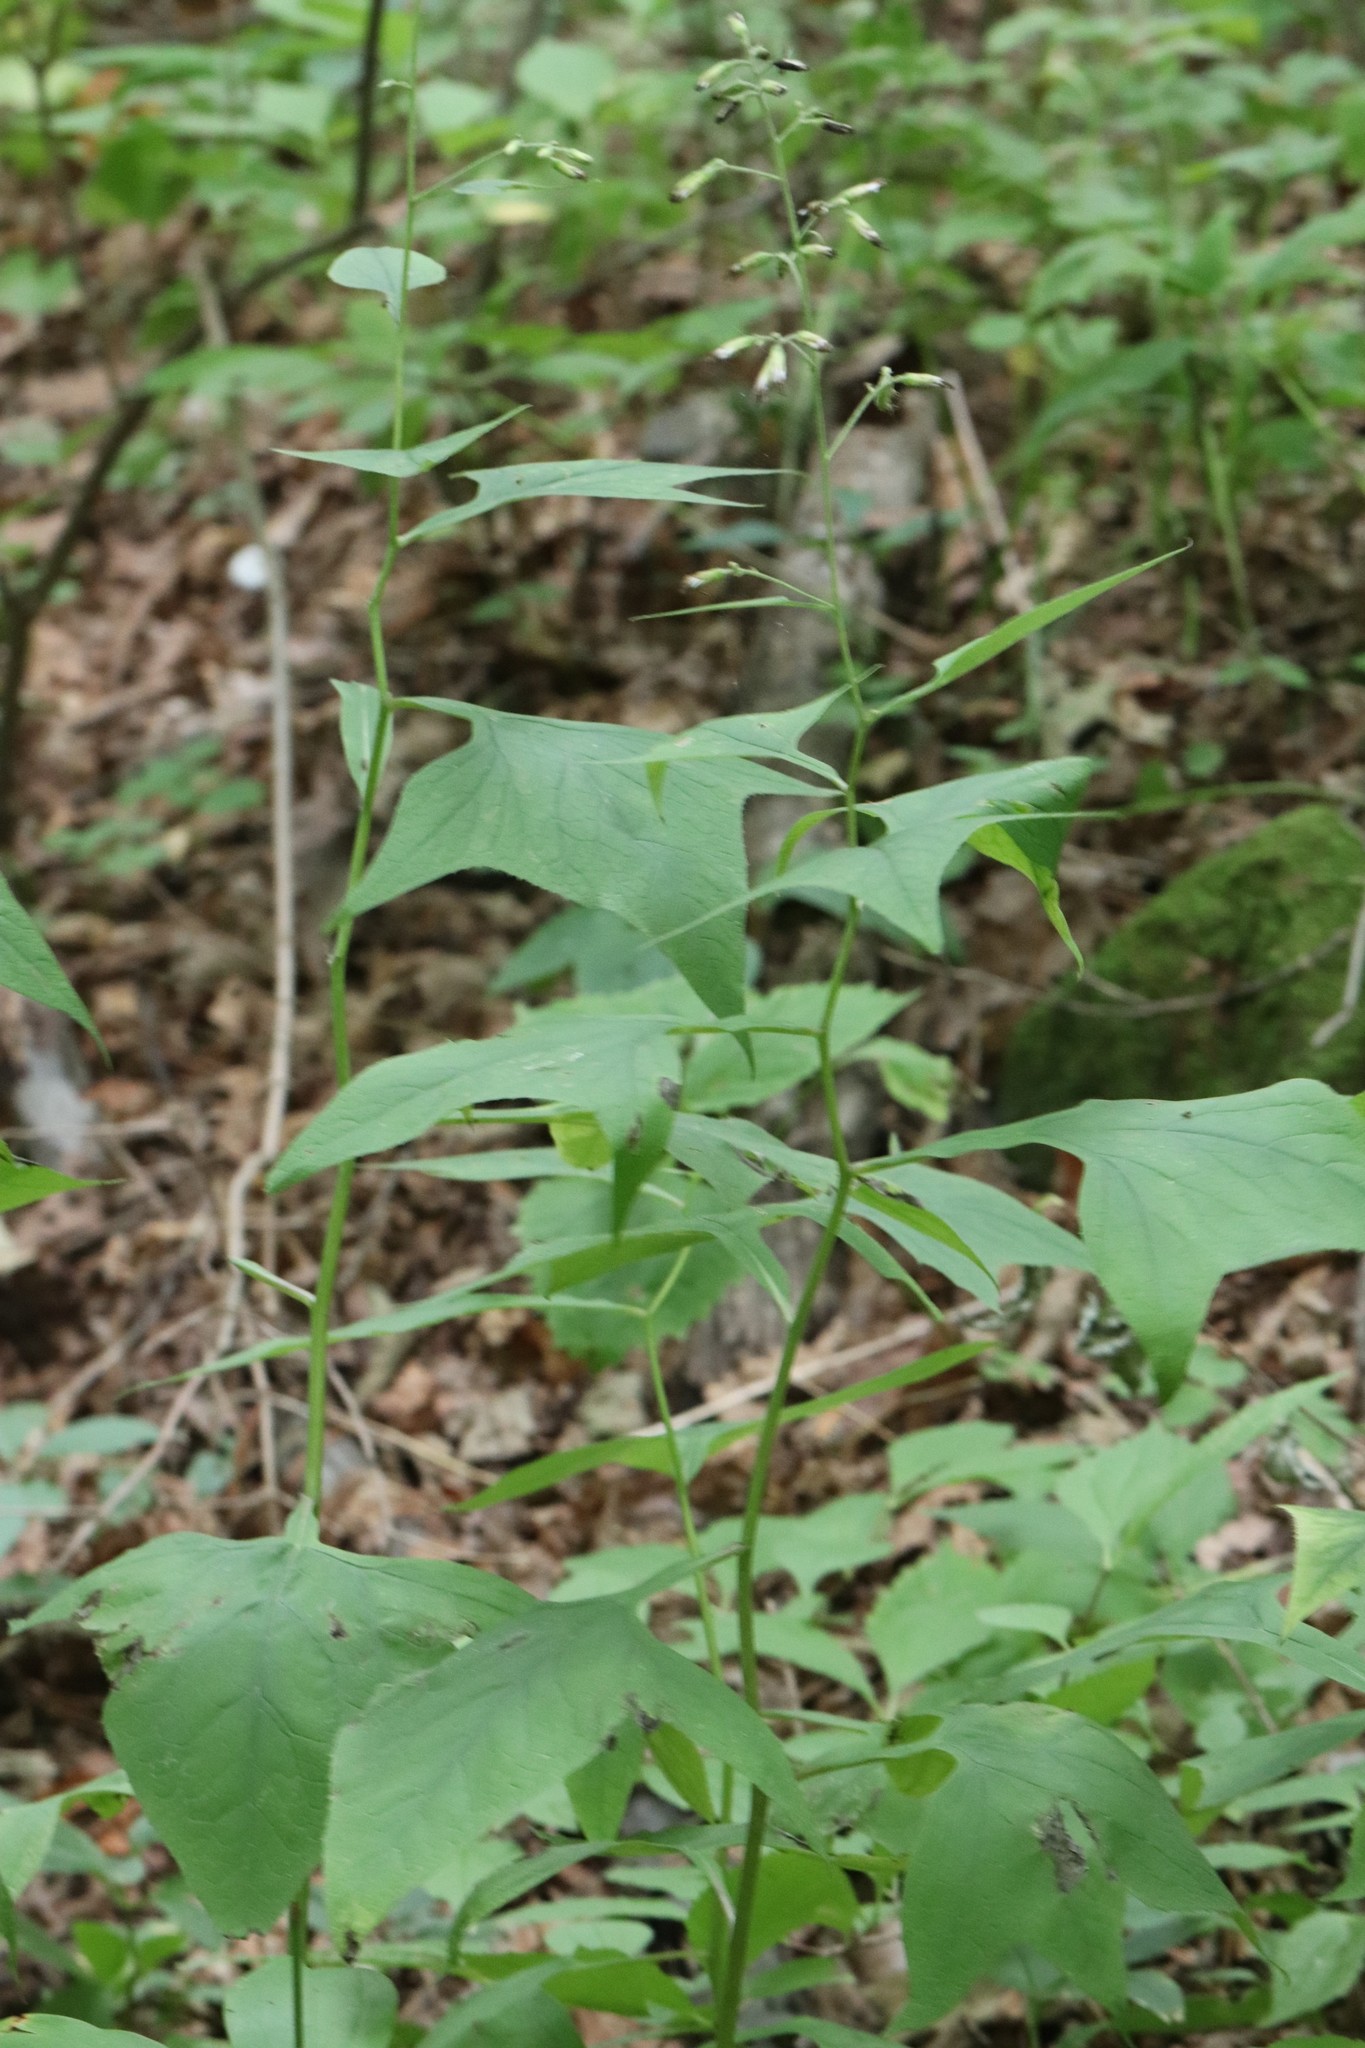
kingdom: Plantae
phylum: Tracheophyta
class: Magnoliopsida
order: Asterales
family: Asteraceae
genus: Parasenecio
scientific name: Parasenecio hastatus
